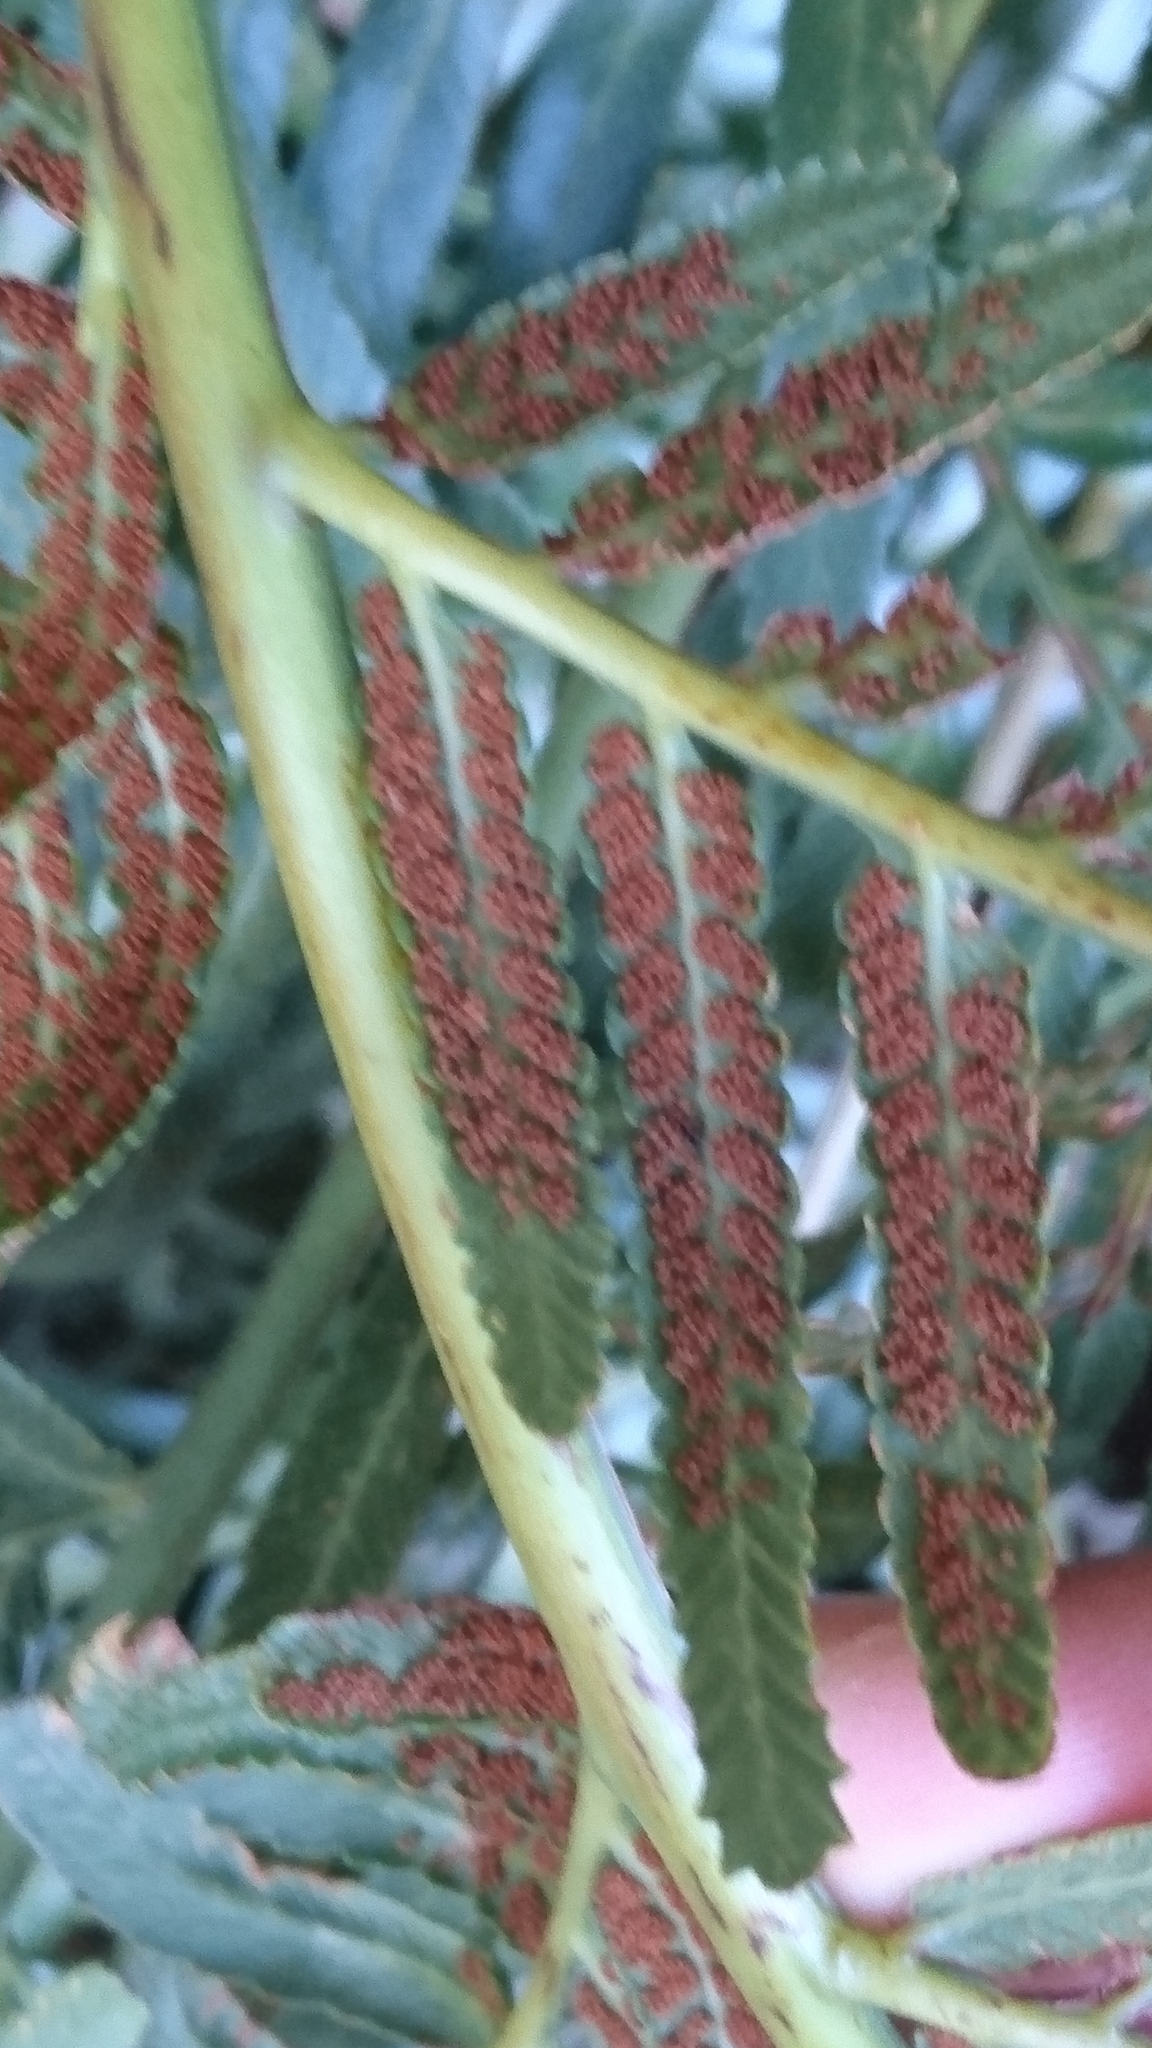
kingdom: Plantae
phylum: Tracheophyta
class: Polypodiopsida
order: Osmundales
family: Osmundaceae
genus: Todea
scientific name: Todea barbara
